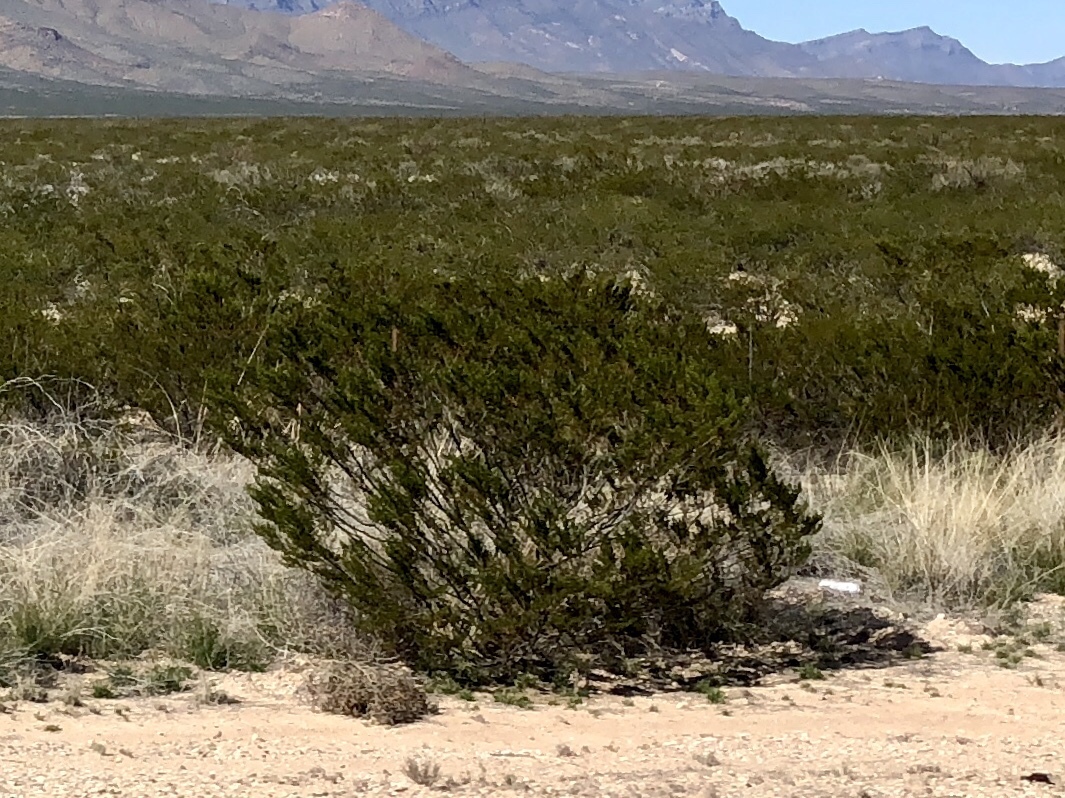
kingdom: Plantae
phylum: Tracheophyta
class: Magnoliopsida
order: Zygophyllales
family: Zygophyllaceae
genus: Larrea
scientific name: Larrea tridentata
